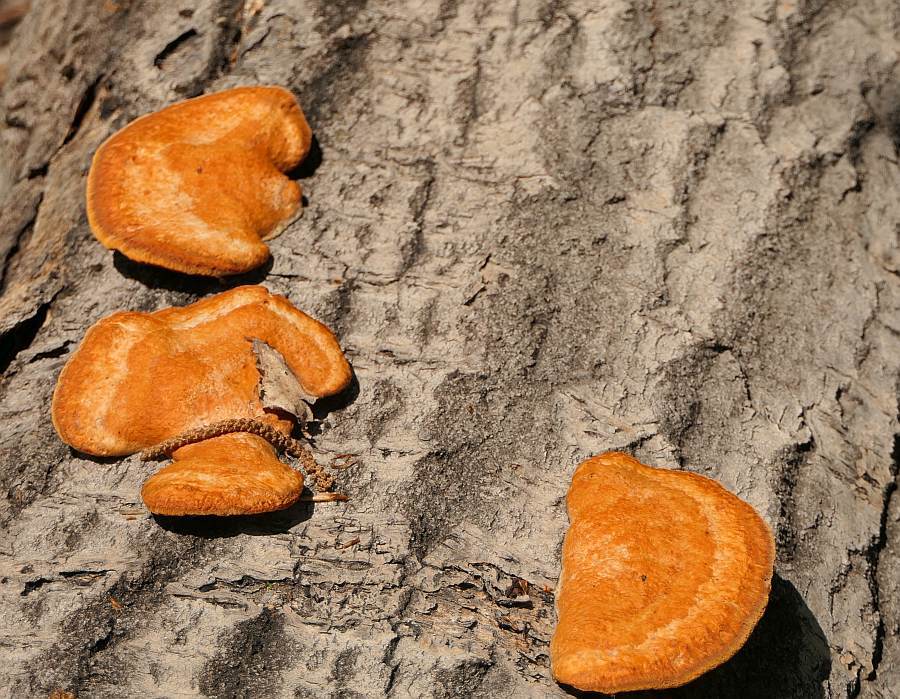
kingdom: Fungi
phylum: Basidiomycota
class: Agaricomycetes
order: Polyporales
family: Polyporaceae
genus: Trametes
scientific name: Trametes cinnabarina
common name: Northern cinnabar polypore
